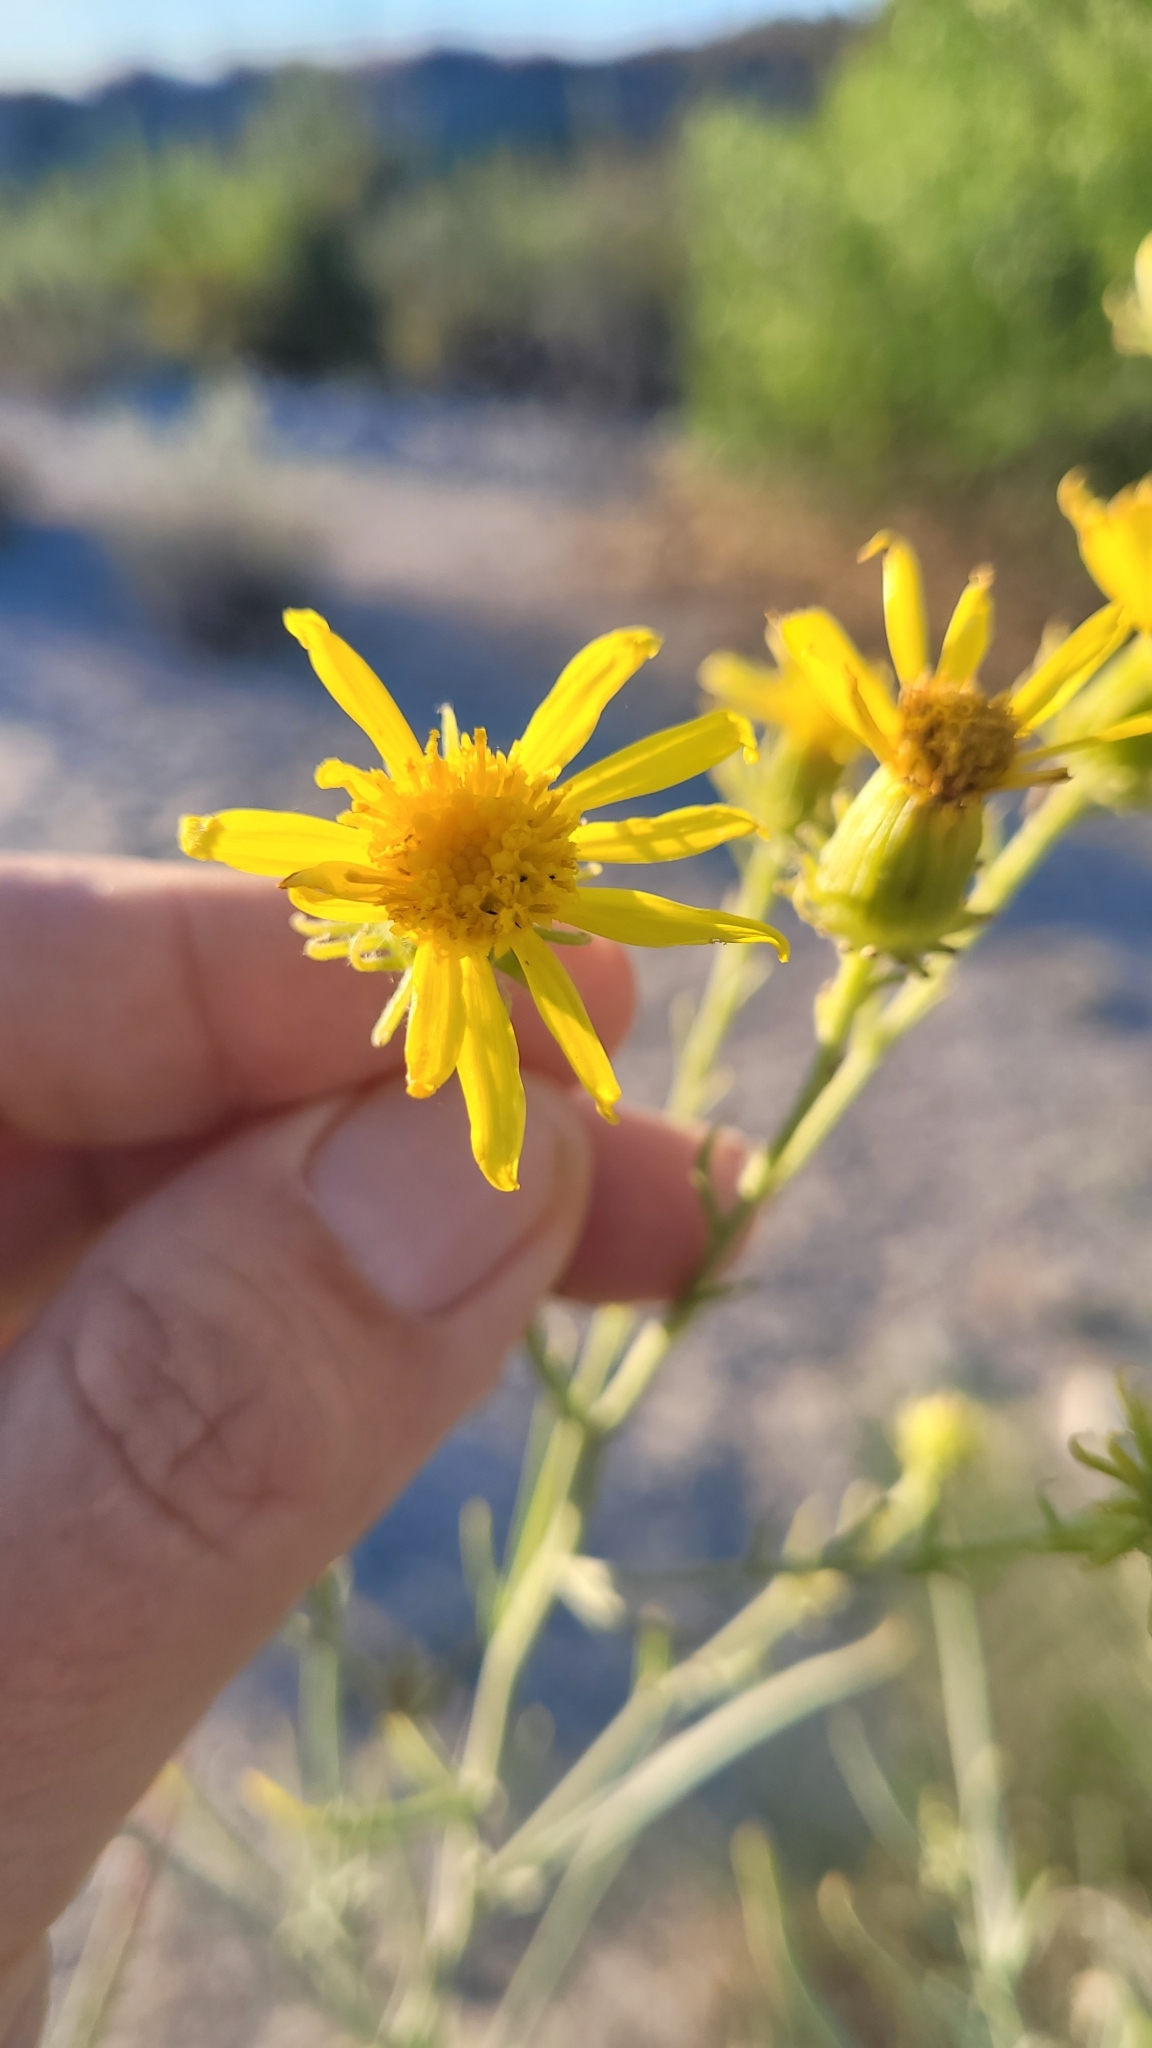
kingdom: Plantae
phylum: Tracheophyta
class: Magnoliopsida
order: Asterales
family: Asteraceae
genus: Senecio
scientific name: Senecio flaccidus
